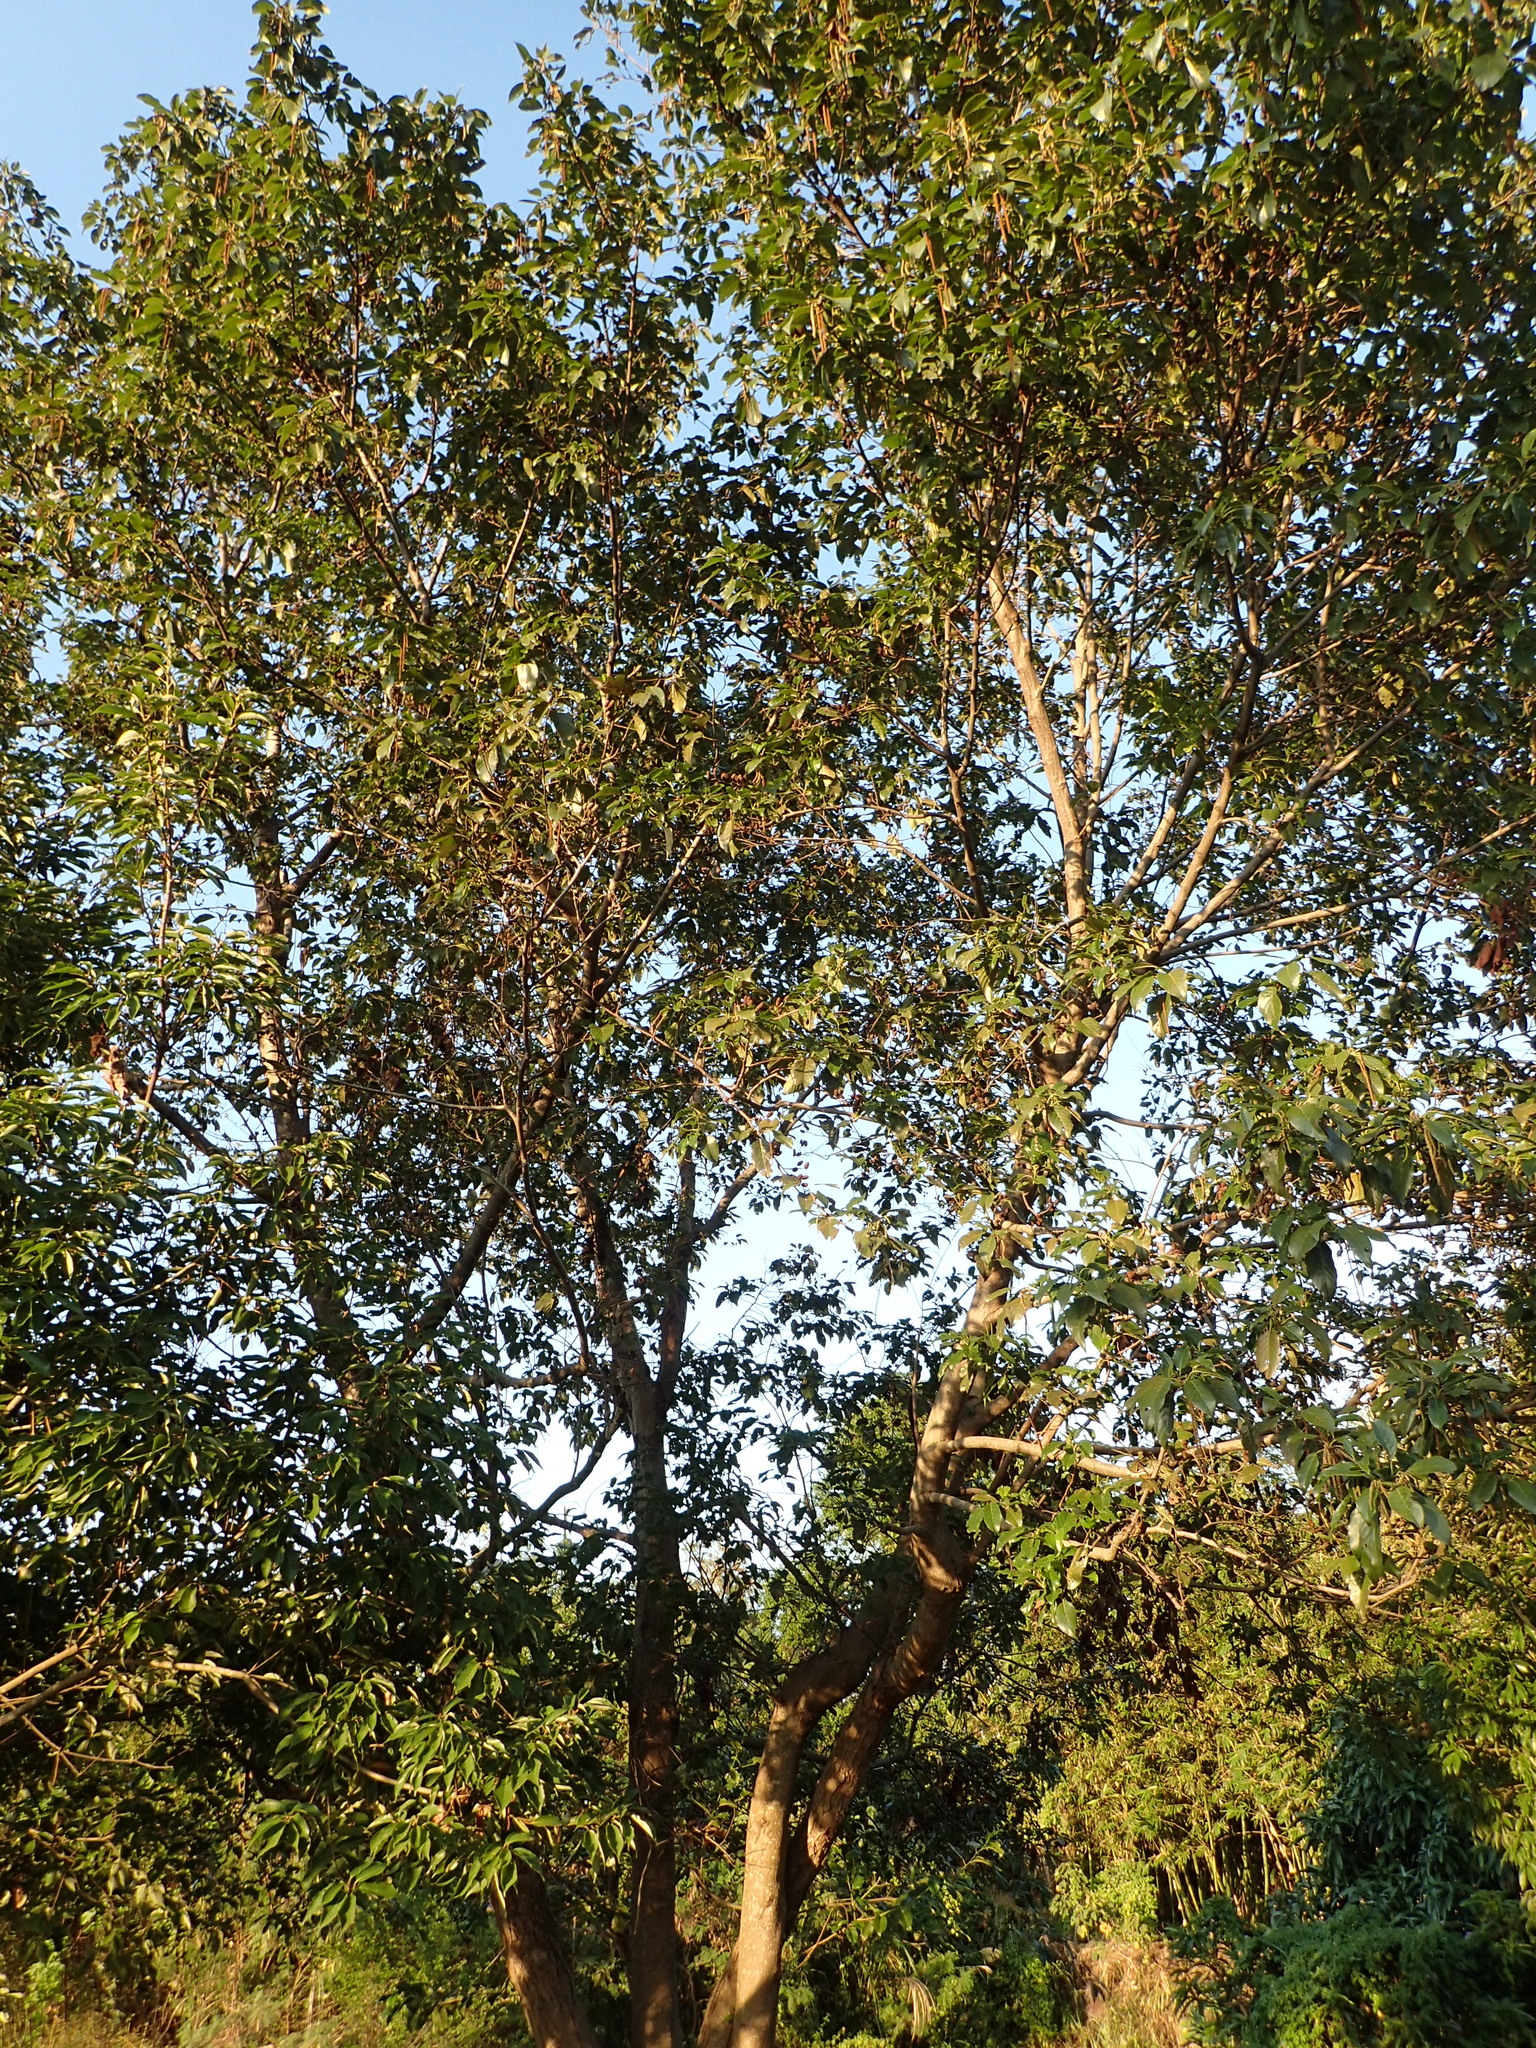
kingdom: Plantae
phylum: Tracheophyta
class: Magnoliopsida
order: Fagales
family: Betulaceae
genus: Alnus
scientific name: Alnus formosana
